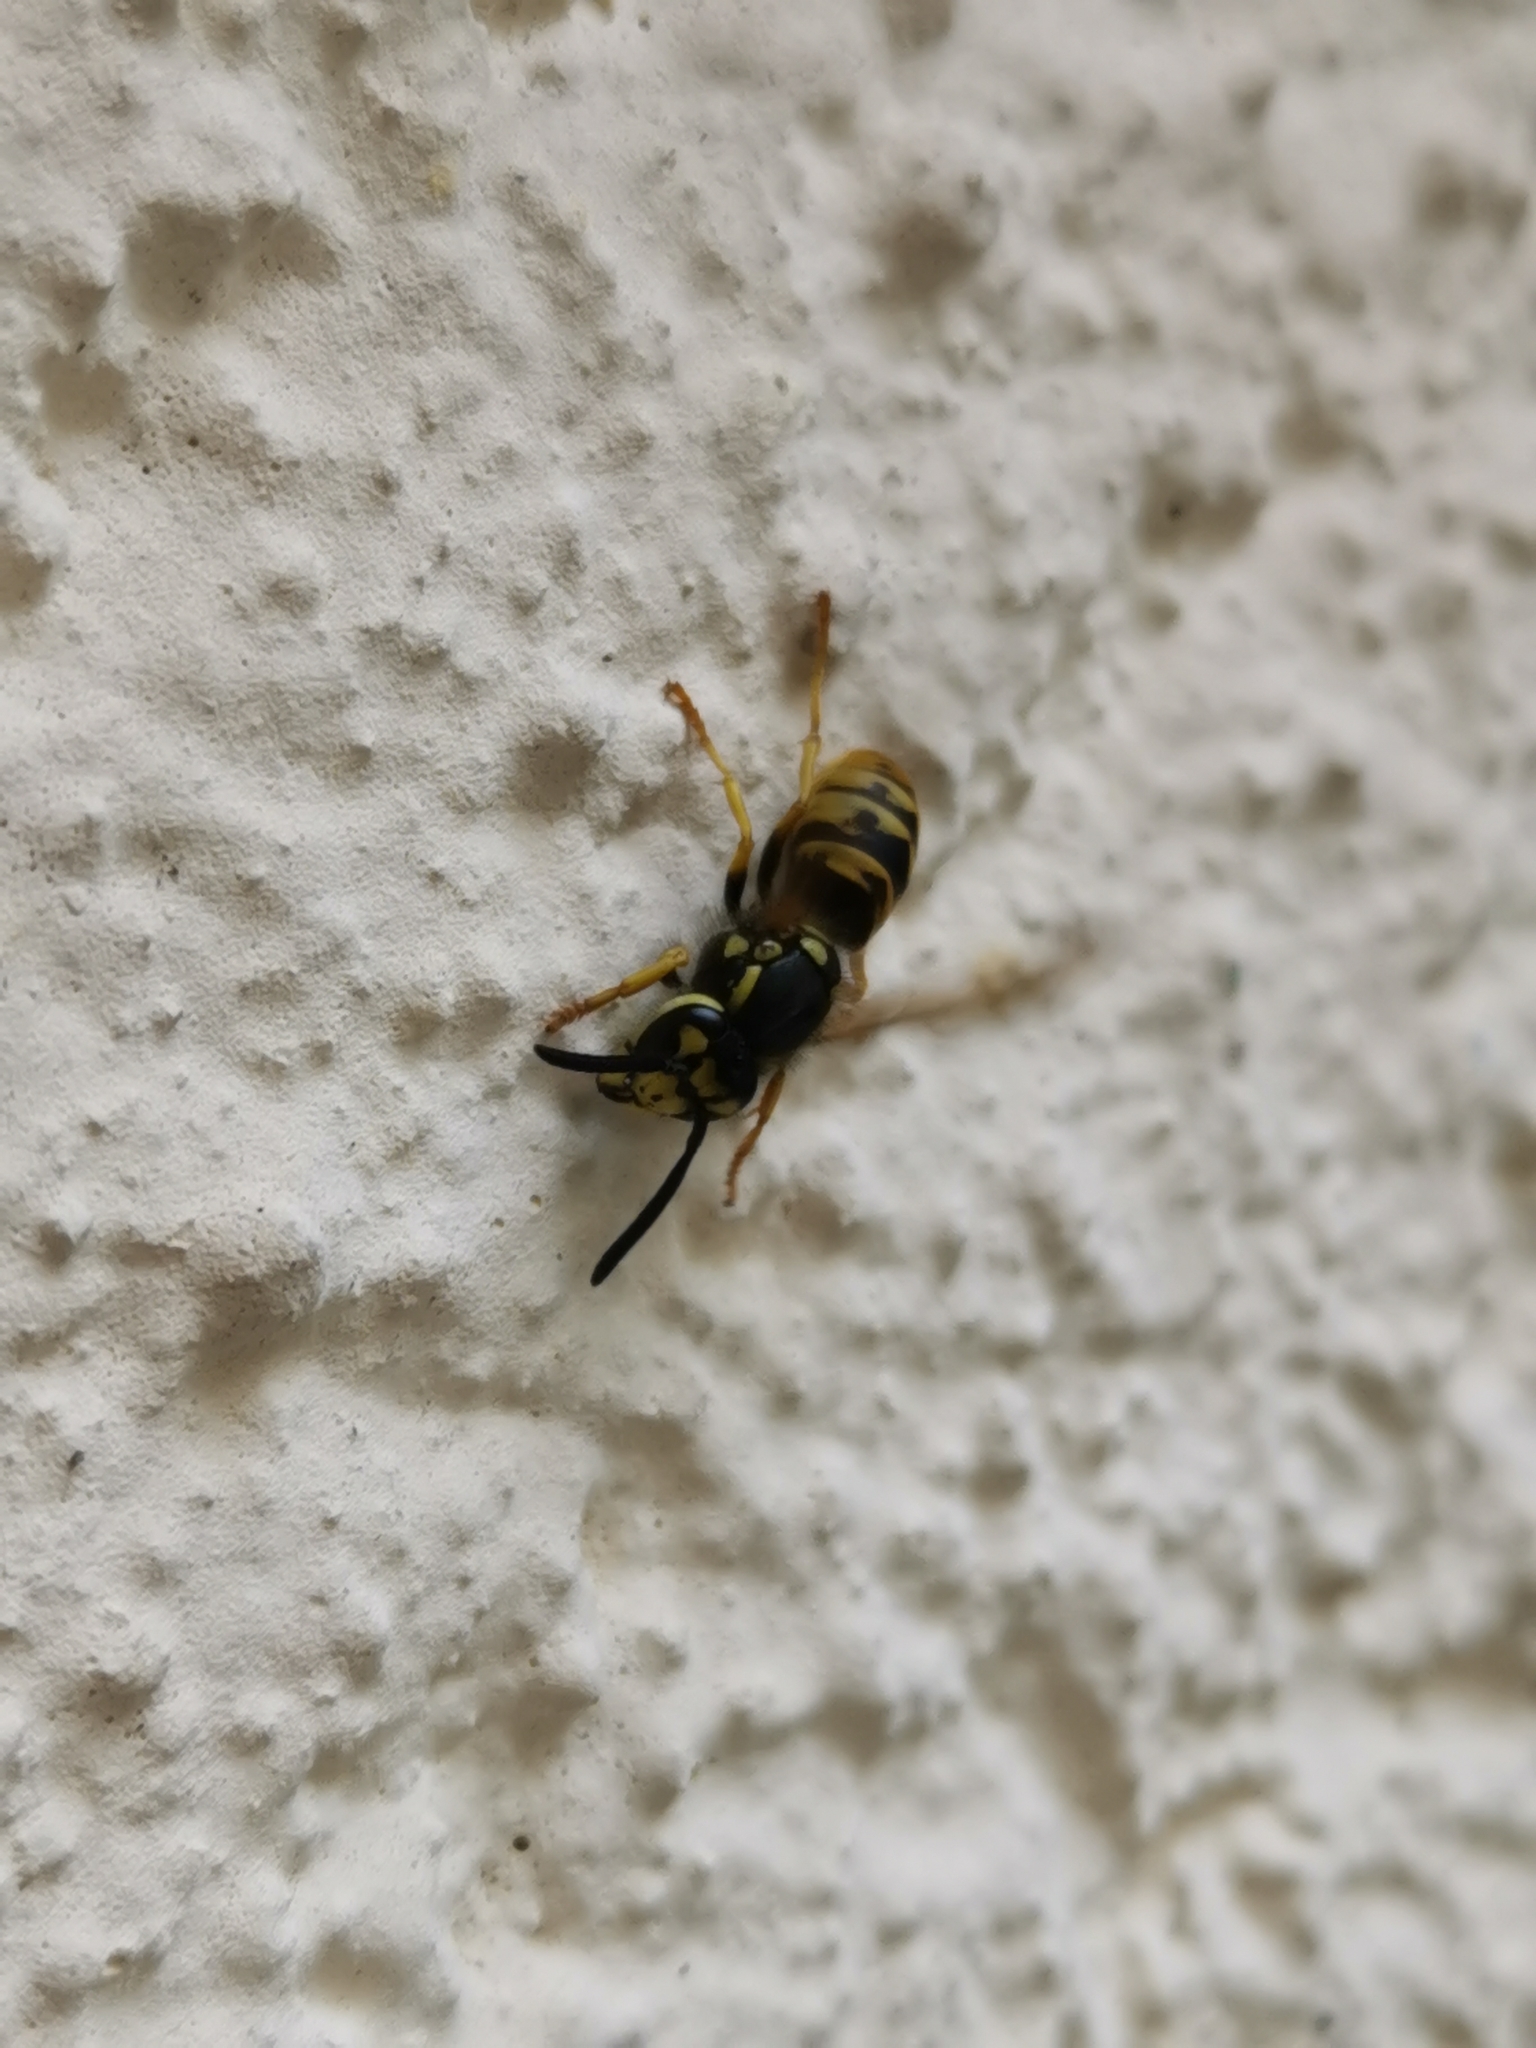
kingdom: Animalia
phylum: Arthropoda
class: Insecta
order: Hymenoptera
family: Vespidae
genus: Vespula
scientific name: Vespula germanica
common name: German wasp
